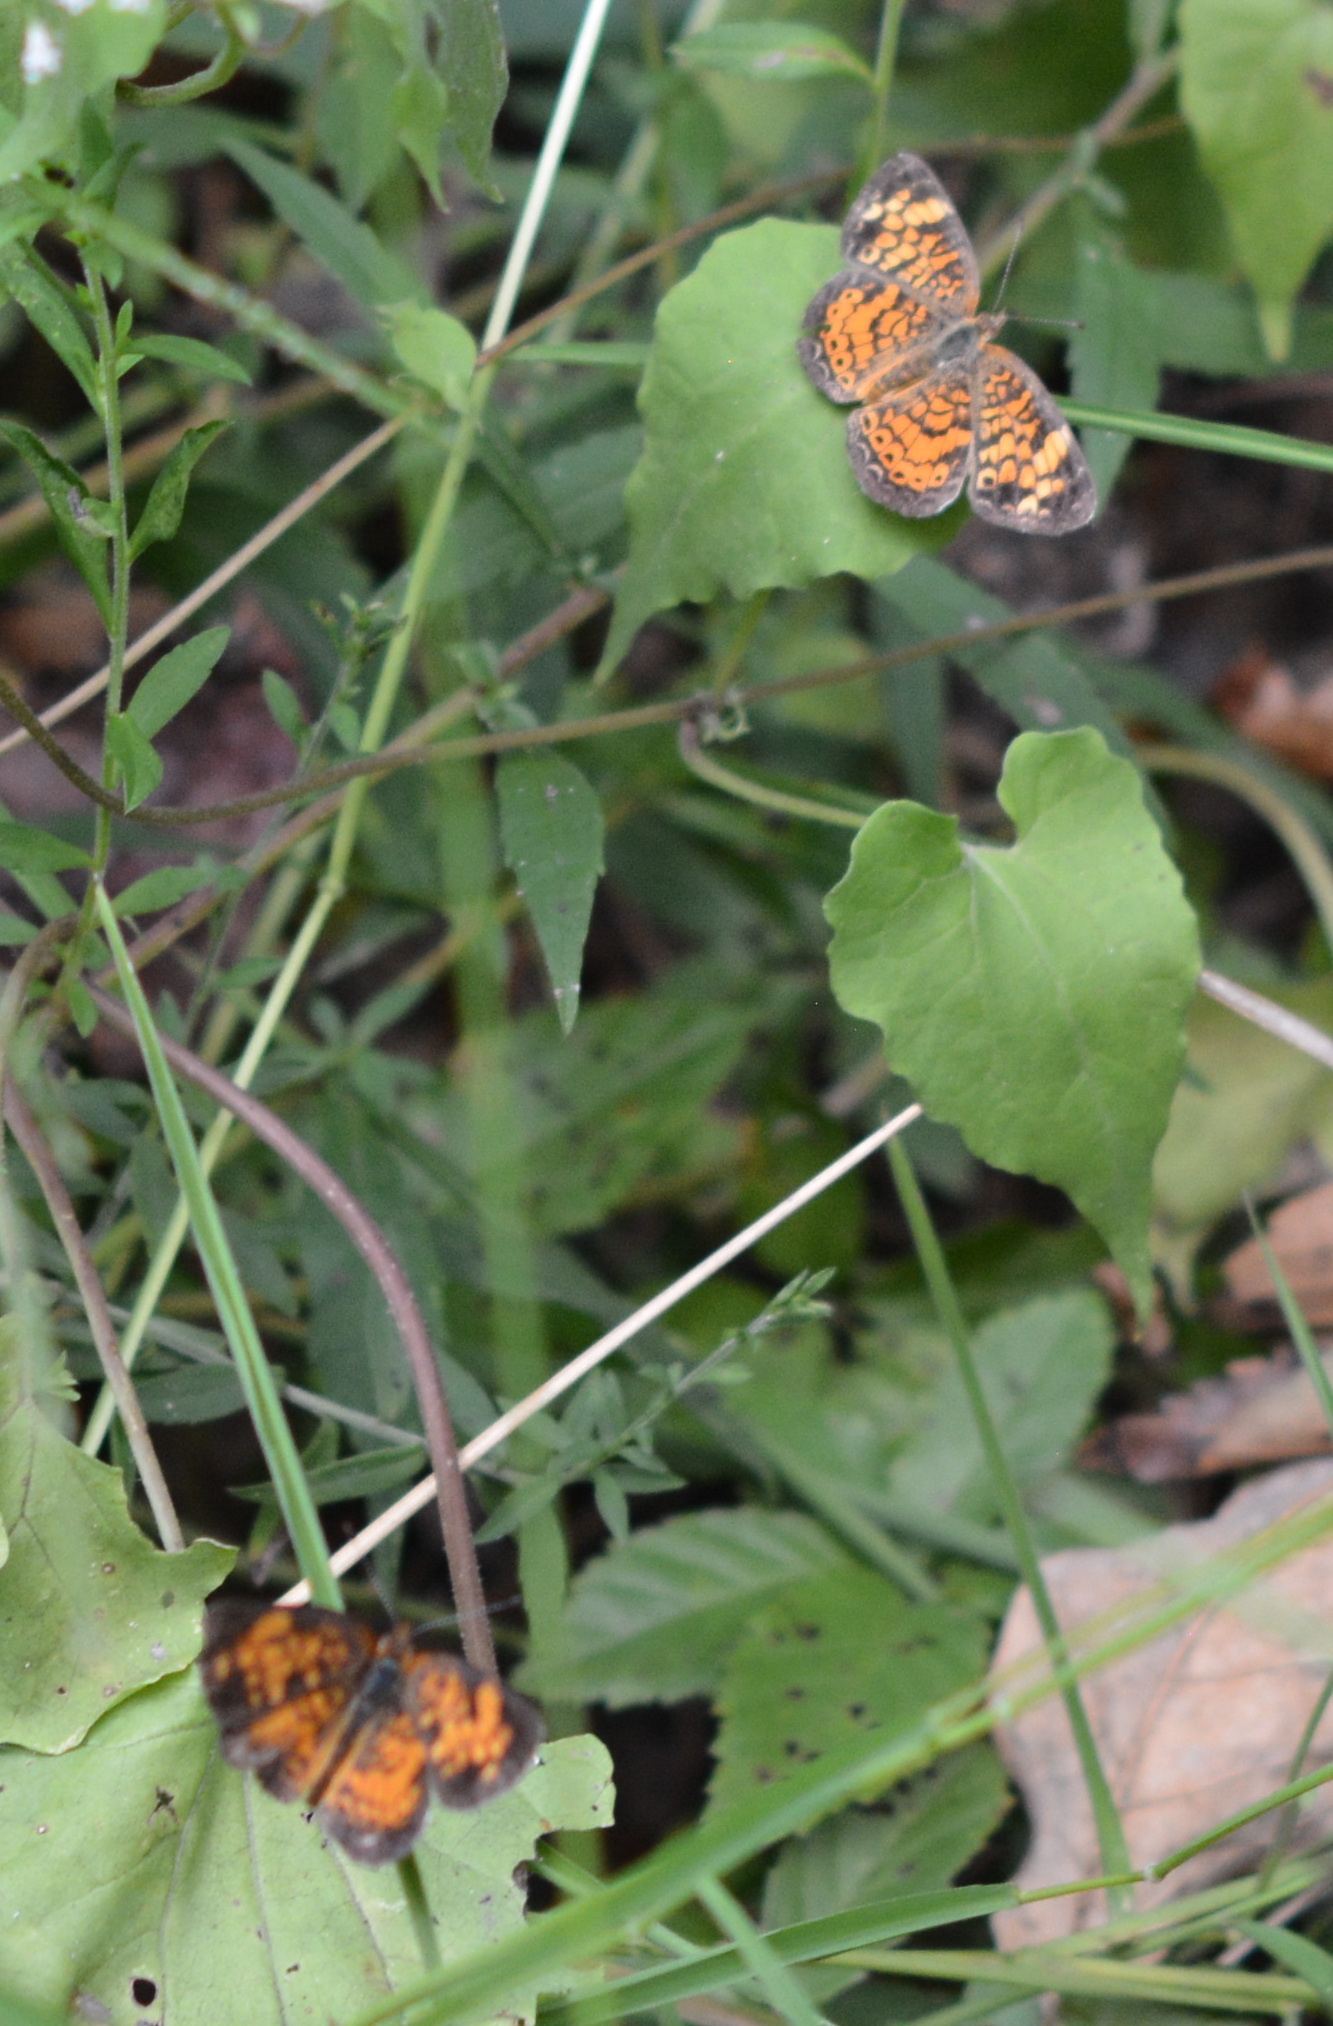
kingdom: Animalia
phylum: Arthropoda
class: Insecta
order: Lepidoptera
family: Nymphalidae
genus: Phyciodes
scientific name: Phyciodes tharos
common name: Pearl crescent
